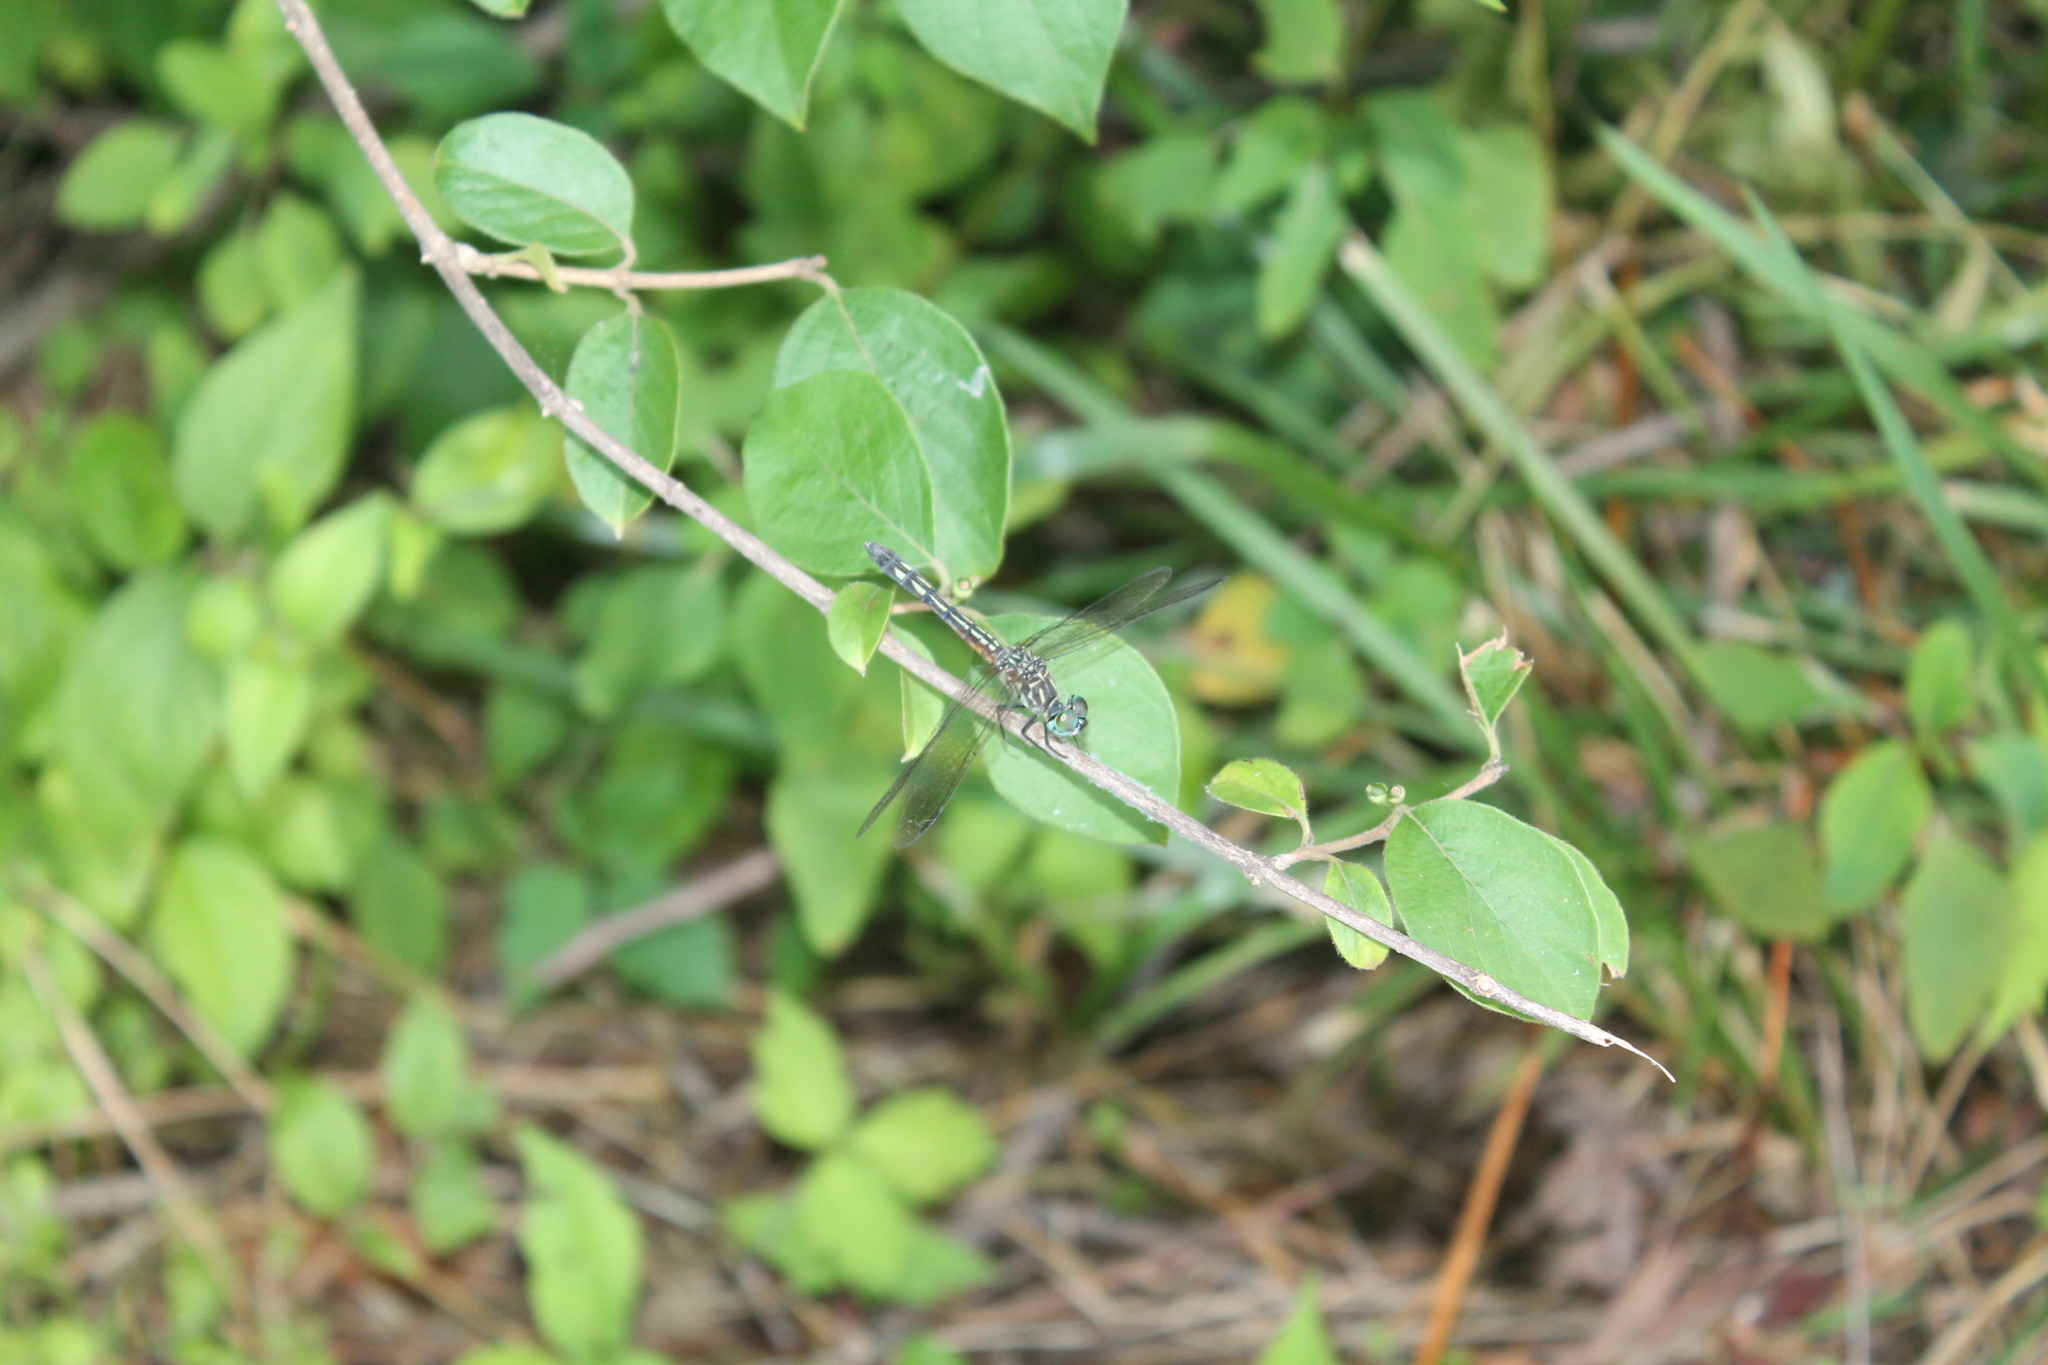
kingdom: Animalia
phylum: Arthropoda
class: Insecta
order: Odonata
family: Libellulidae
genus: Pachydiplax
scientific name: Pachydiplax longipennis
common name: Blue dasher
